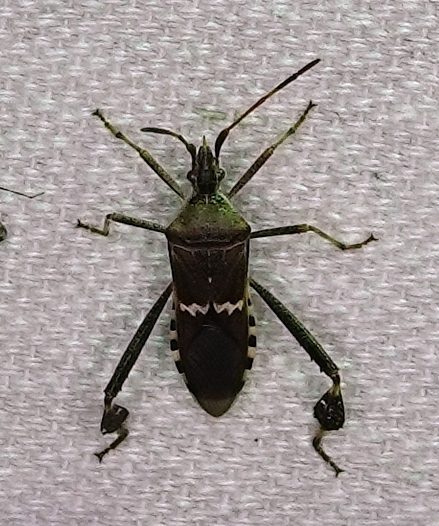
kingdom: Animalia
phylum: Arthropoda
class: Insecta
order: Hemiptera
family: Coreidae
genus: Leptoglossus
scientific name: Leptoglossus clypealis
